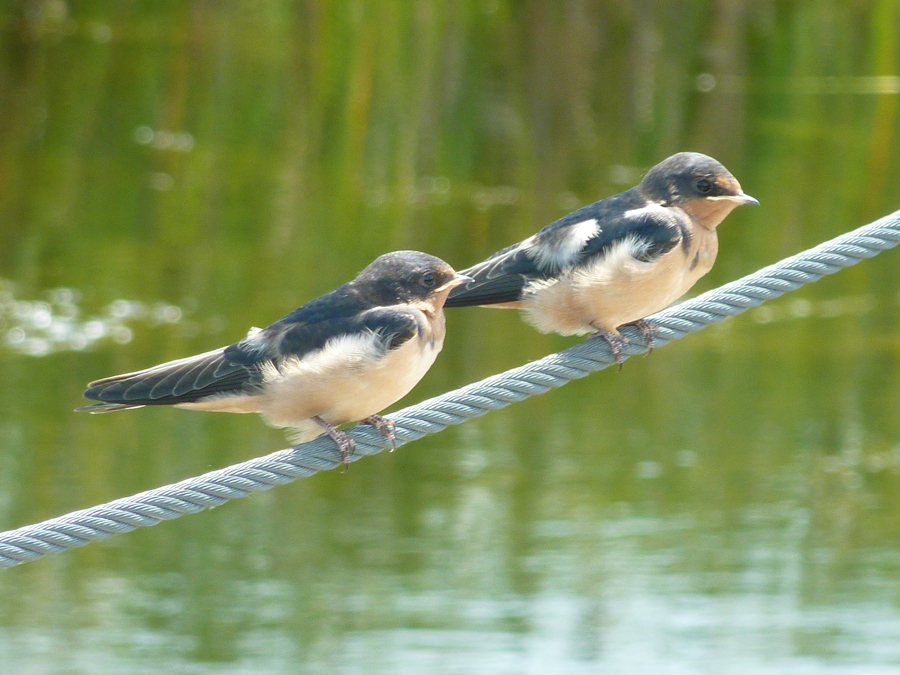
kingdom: Animalia
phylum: Chordata
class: Aves
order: Passeriformes
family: Hirundinidae
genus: Hirundo
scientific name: Hirundo rustica
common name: Barn swallow
